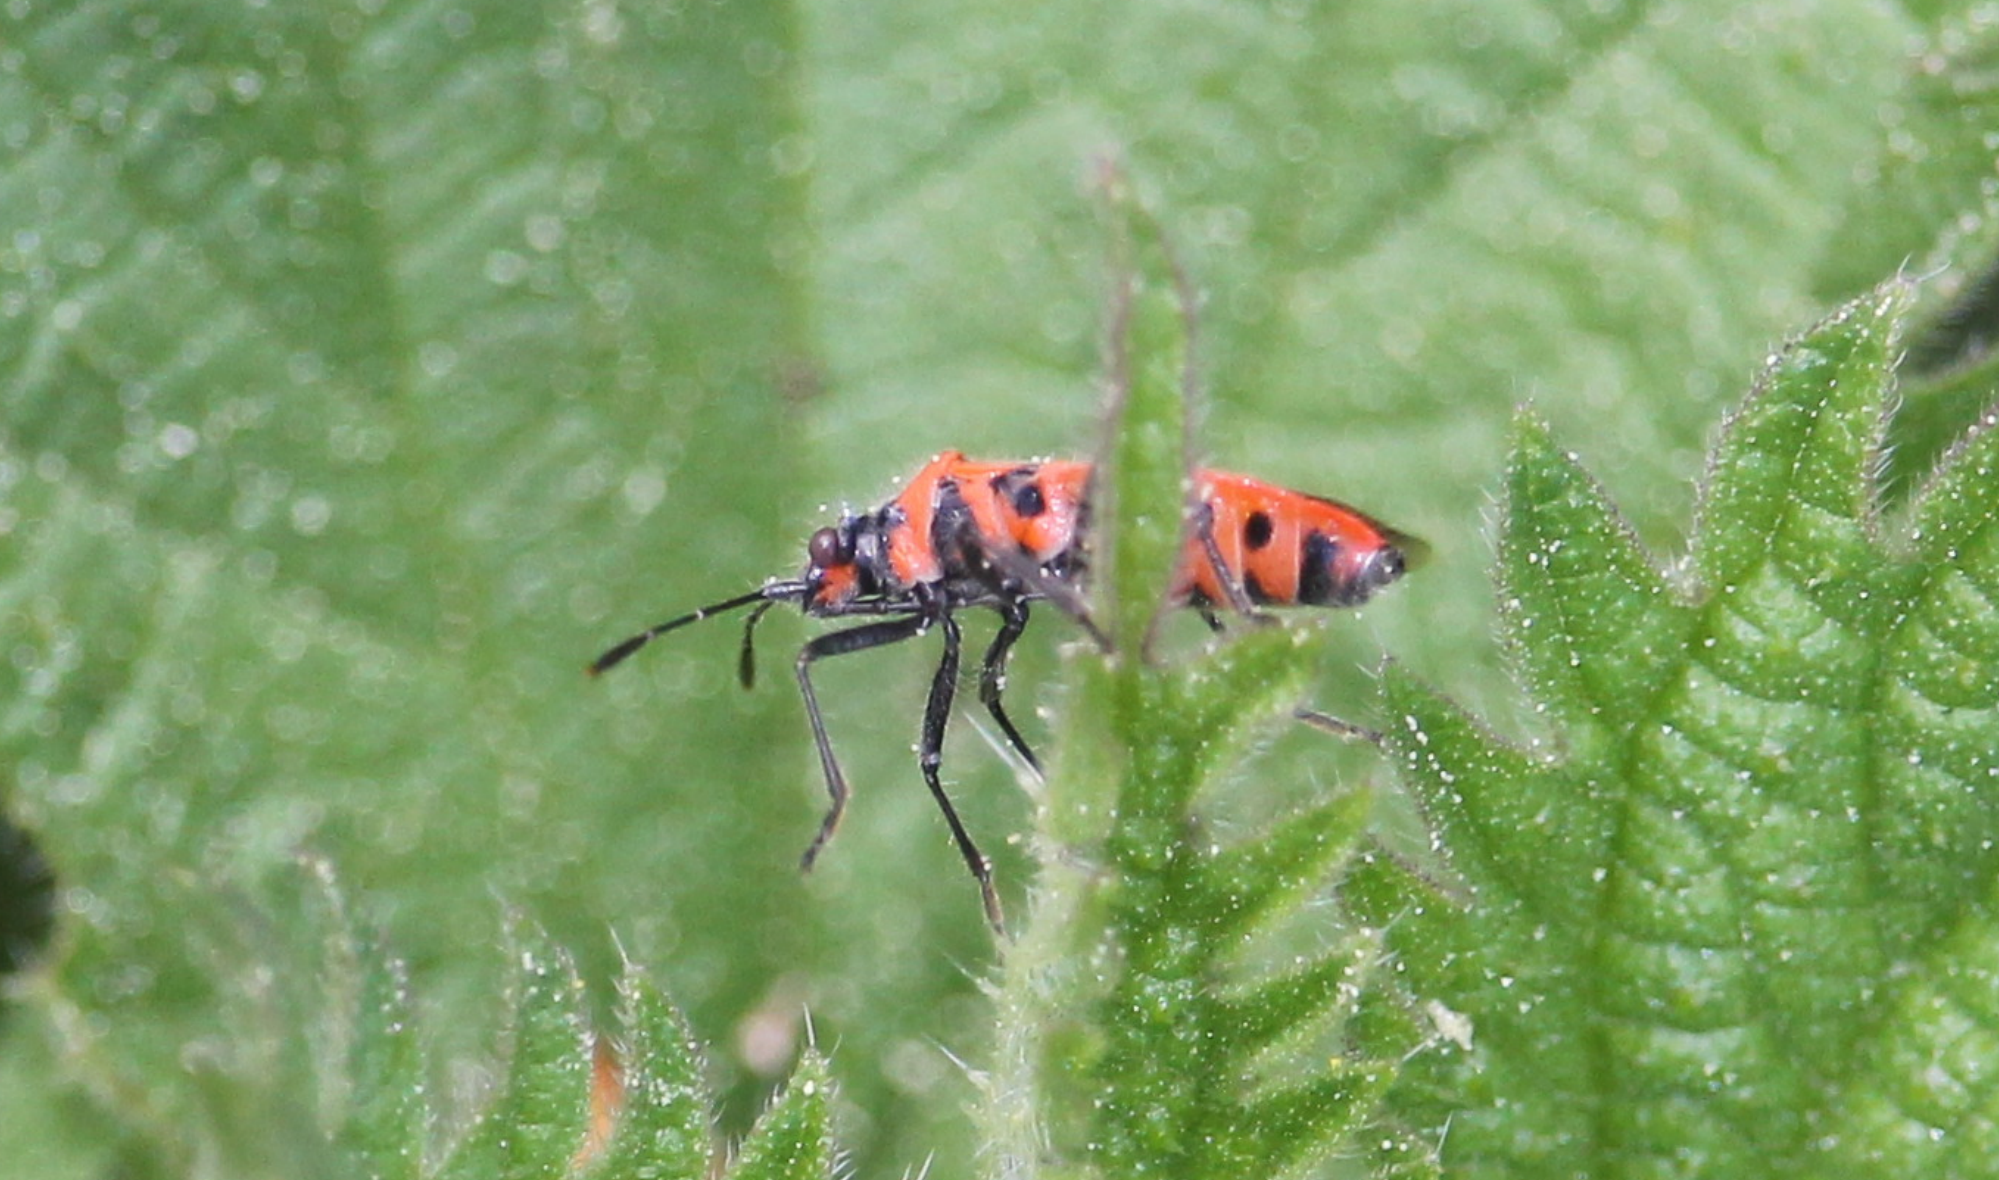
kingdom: Animalia
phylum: Arthropoda
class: Insecta
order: Hemiptera
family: Rhopalidae
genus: Corizus
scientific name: Corizus hyoscyami
